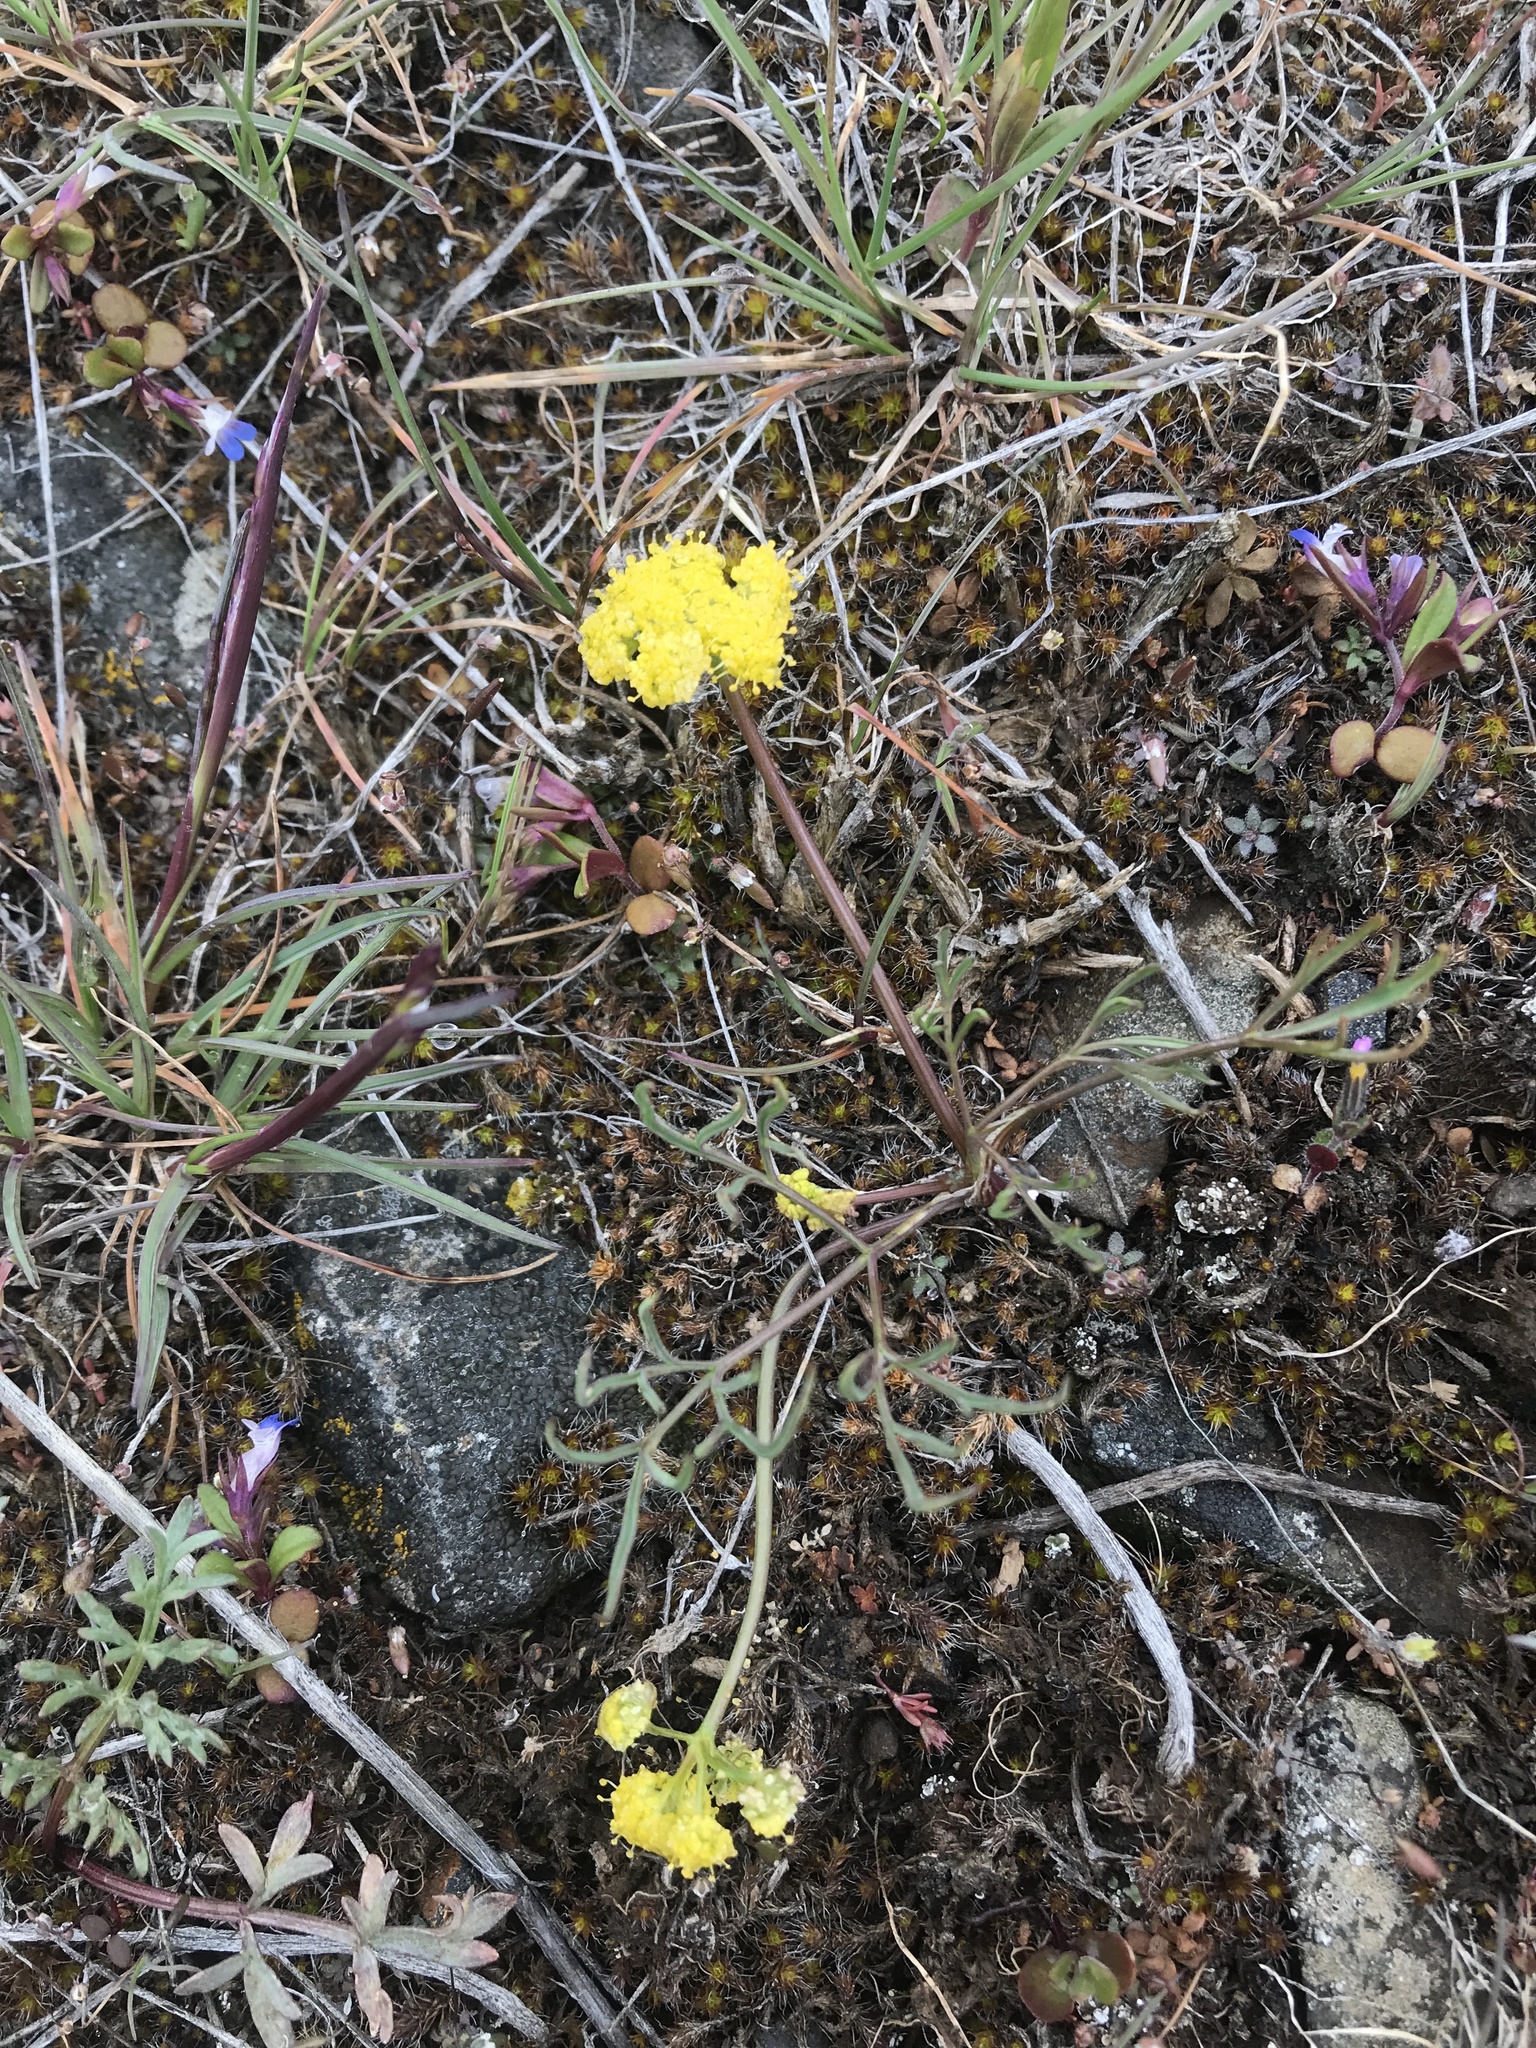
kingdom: Plantae
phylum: Tracheophyta
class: Magnoliopsida
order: Apiales
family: Apiaceae
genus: Lomatium
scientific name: Lomatium farinosum
